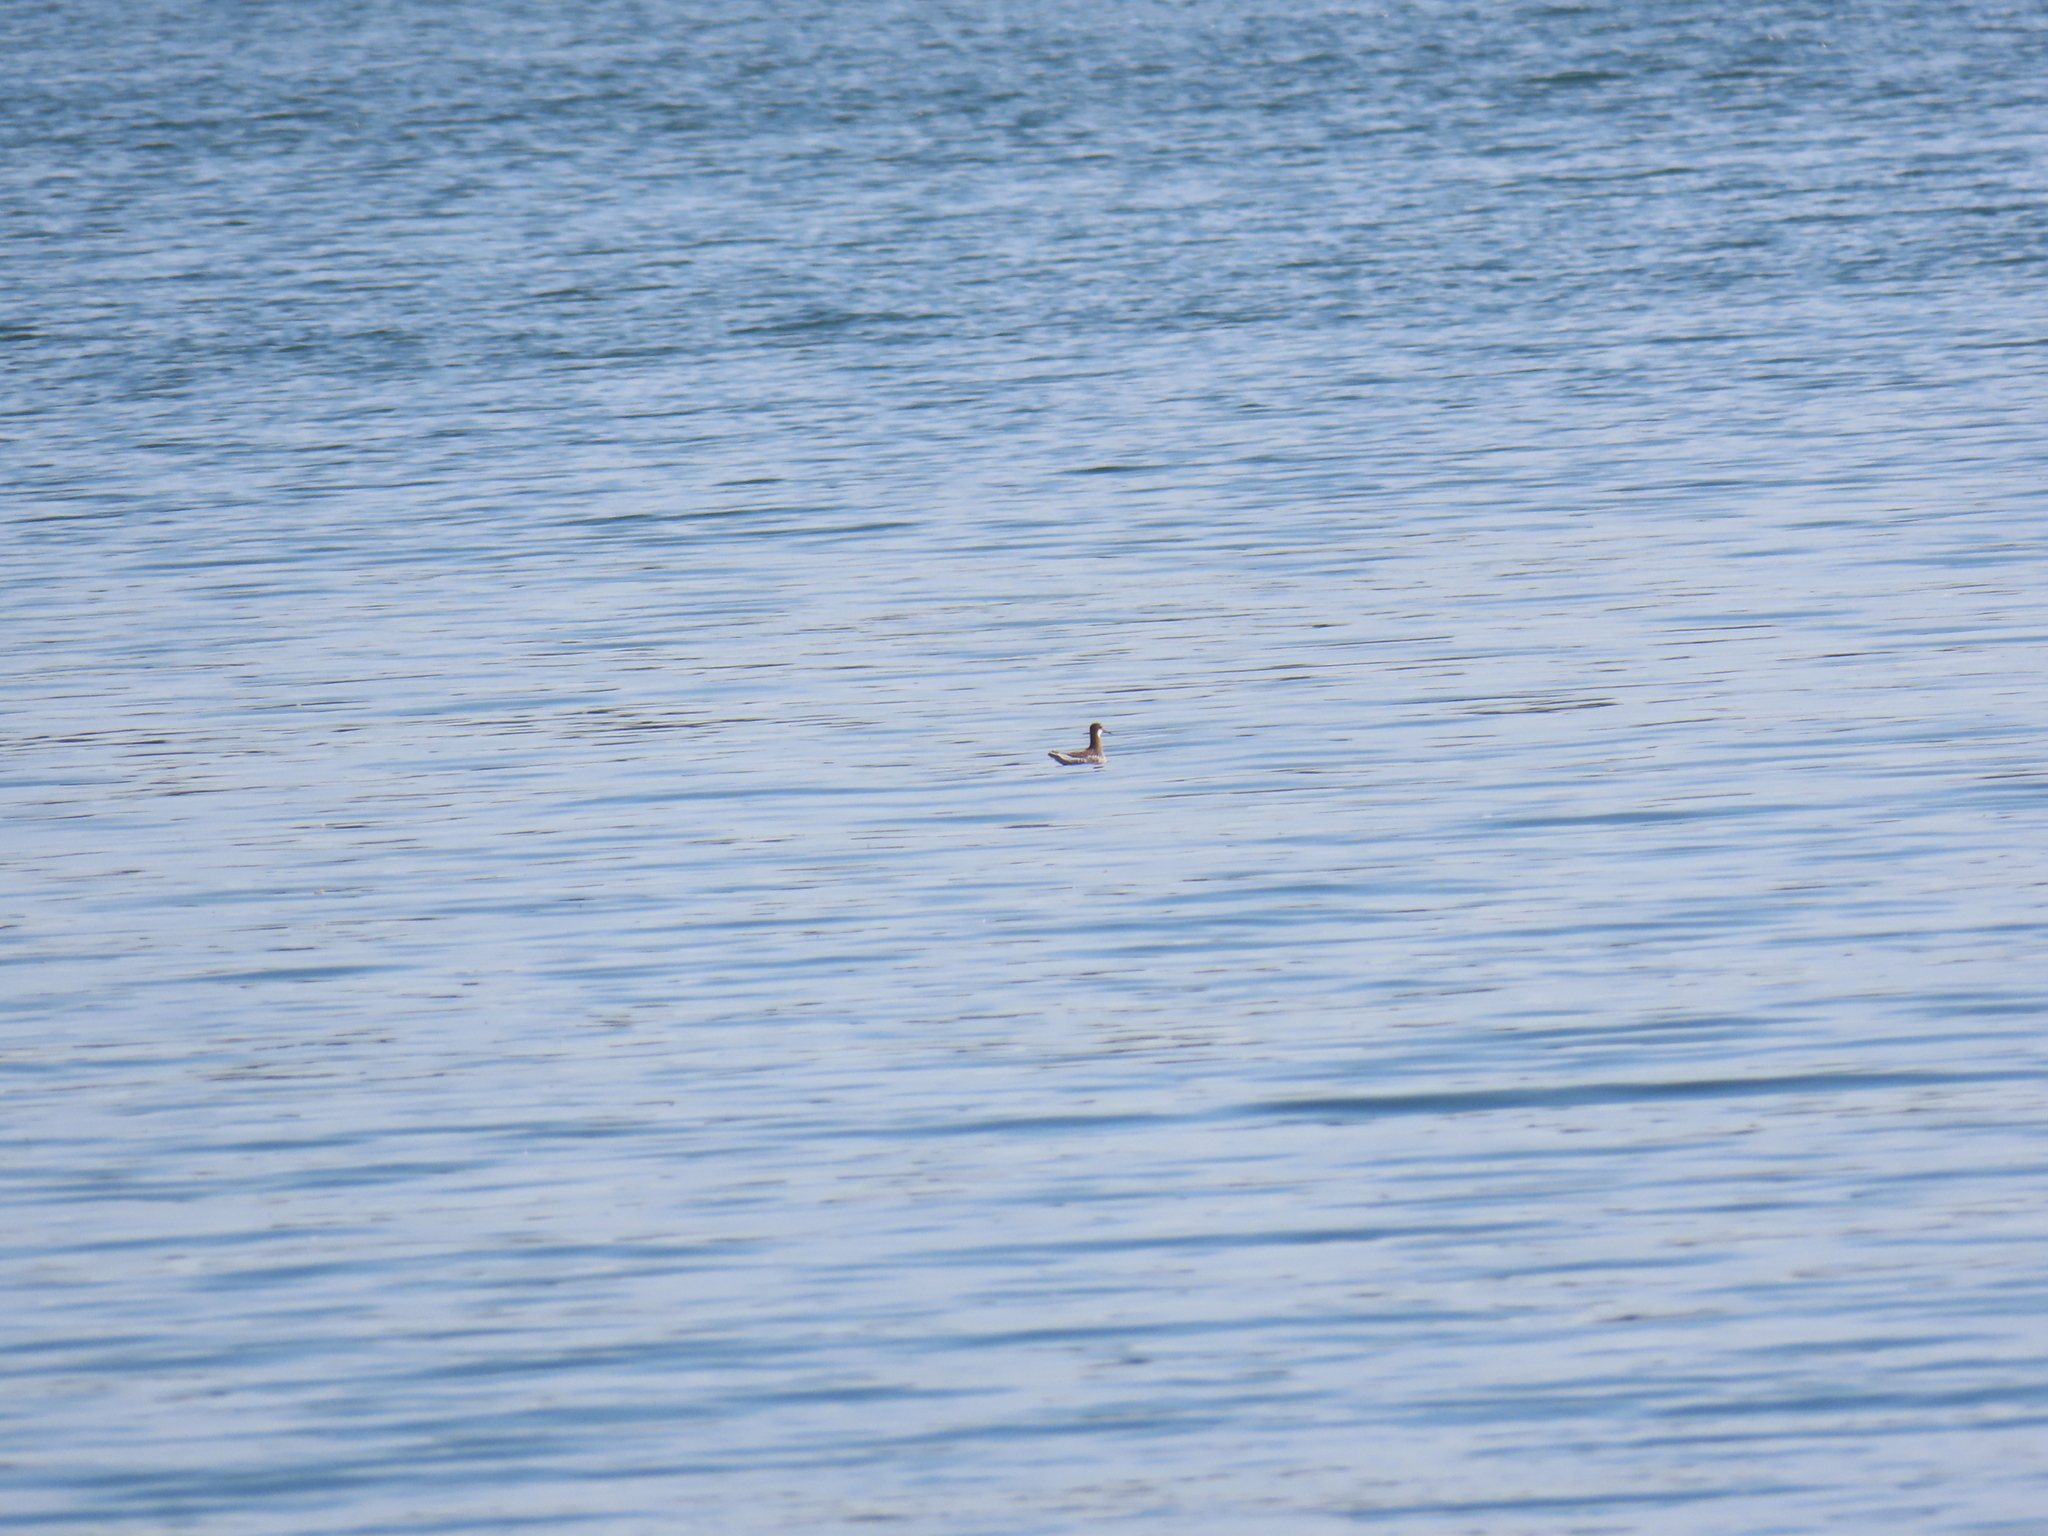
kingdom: Animalia
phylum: Chordata
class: Aves
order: Charadriiformes
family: Scolopacidae
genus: Phalaropus
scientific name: Phalaropus lobatus
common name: Red-necked phalarope
